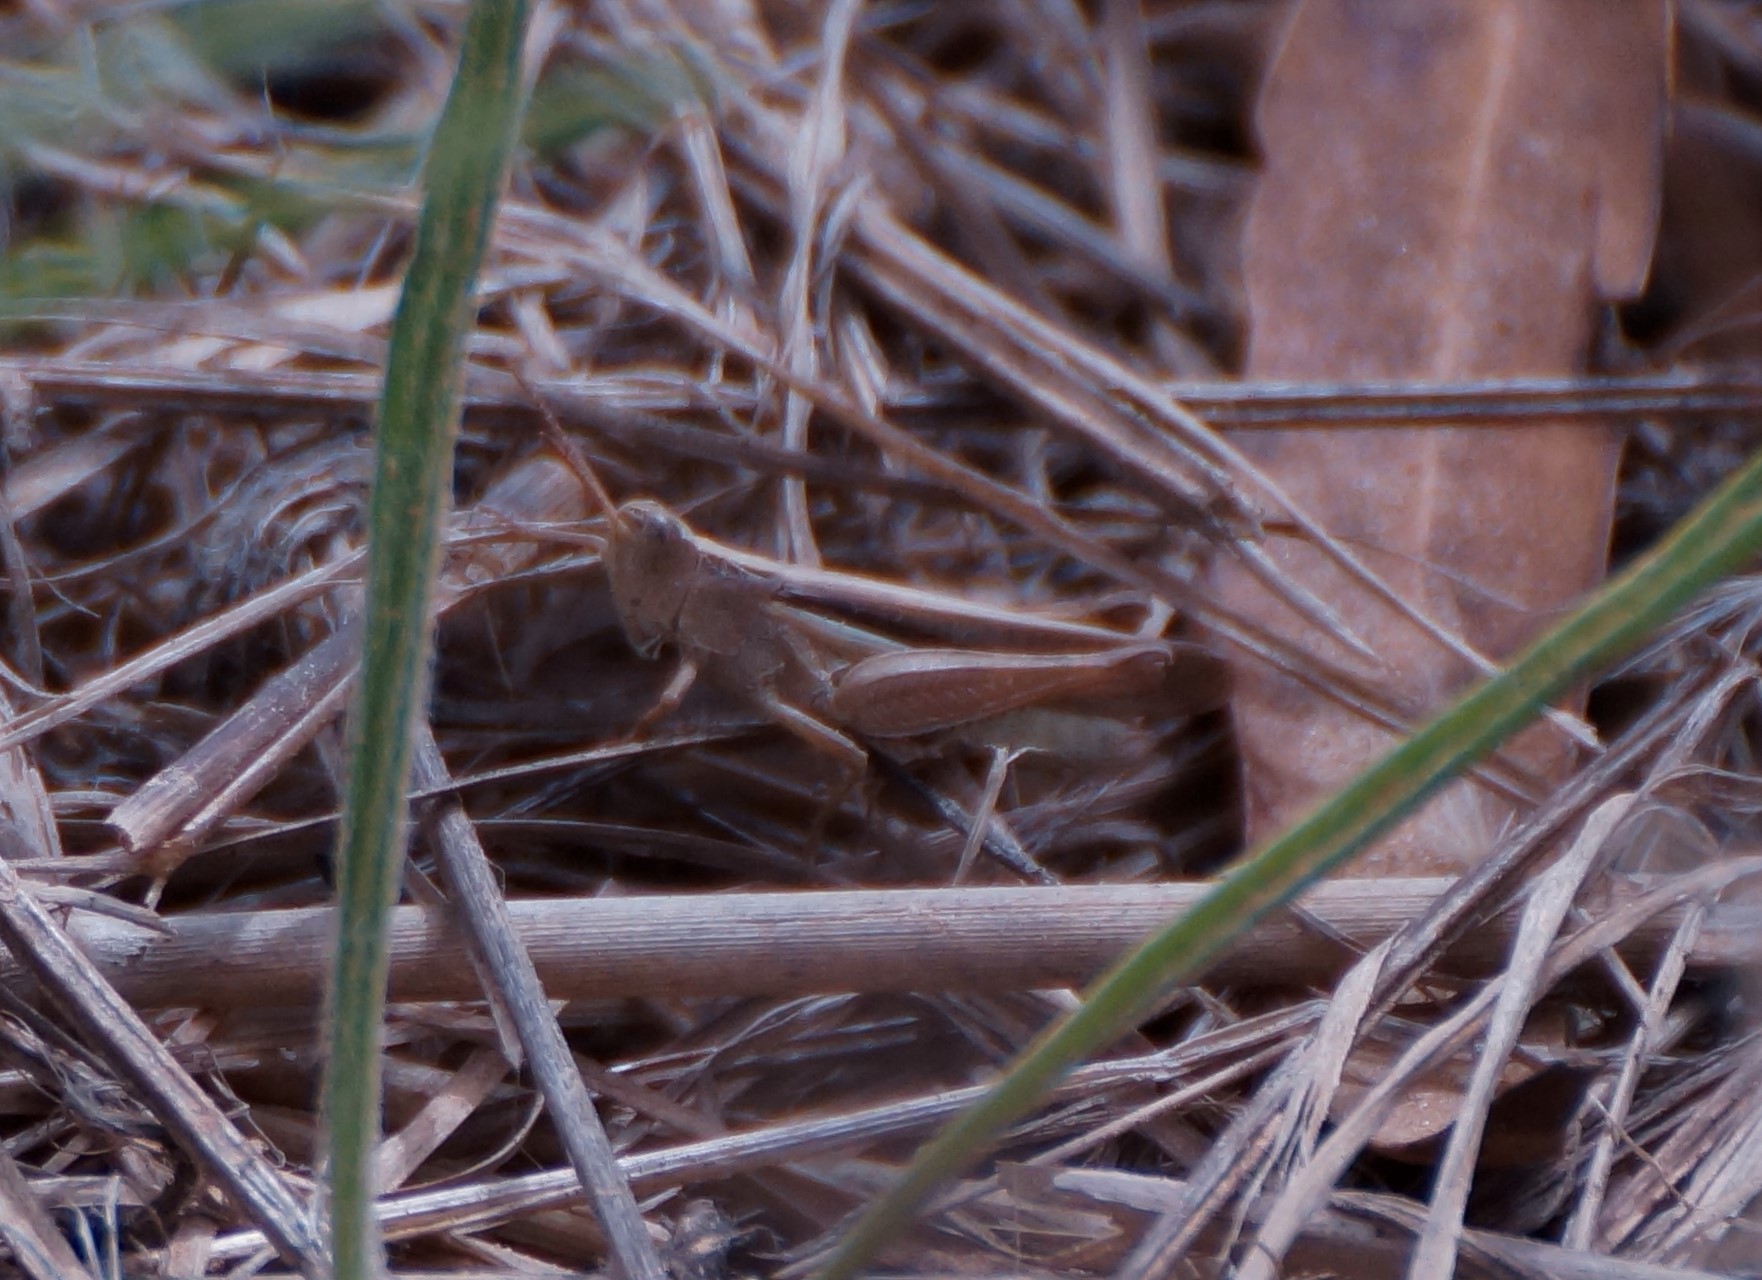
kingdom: Animalia
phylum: Arthropoda
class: Insecta
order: Orthoptera
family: Acrididae
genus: Schizobothrus
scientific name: Schizobothrus flavovittatus
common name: Disappearing grasshopper
